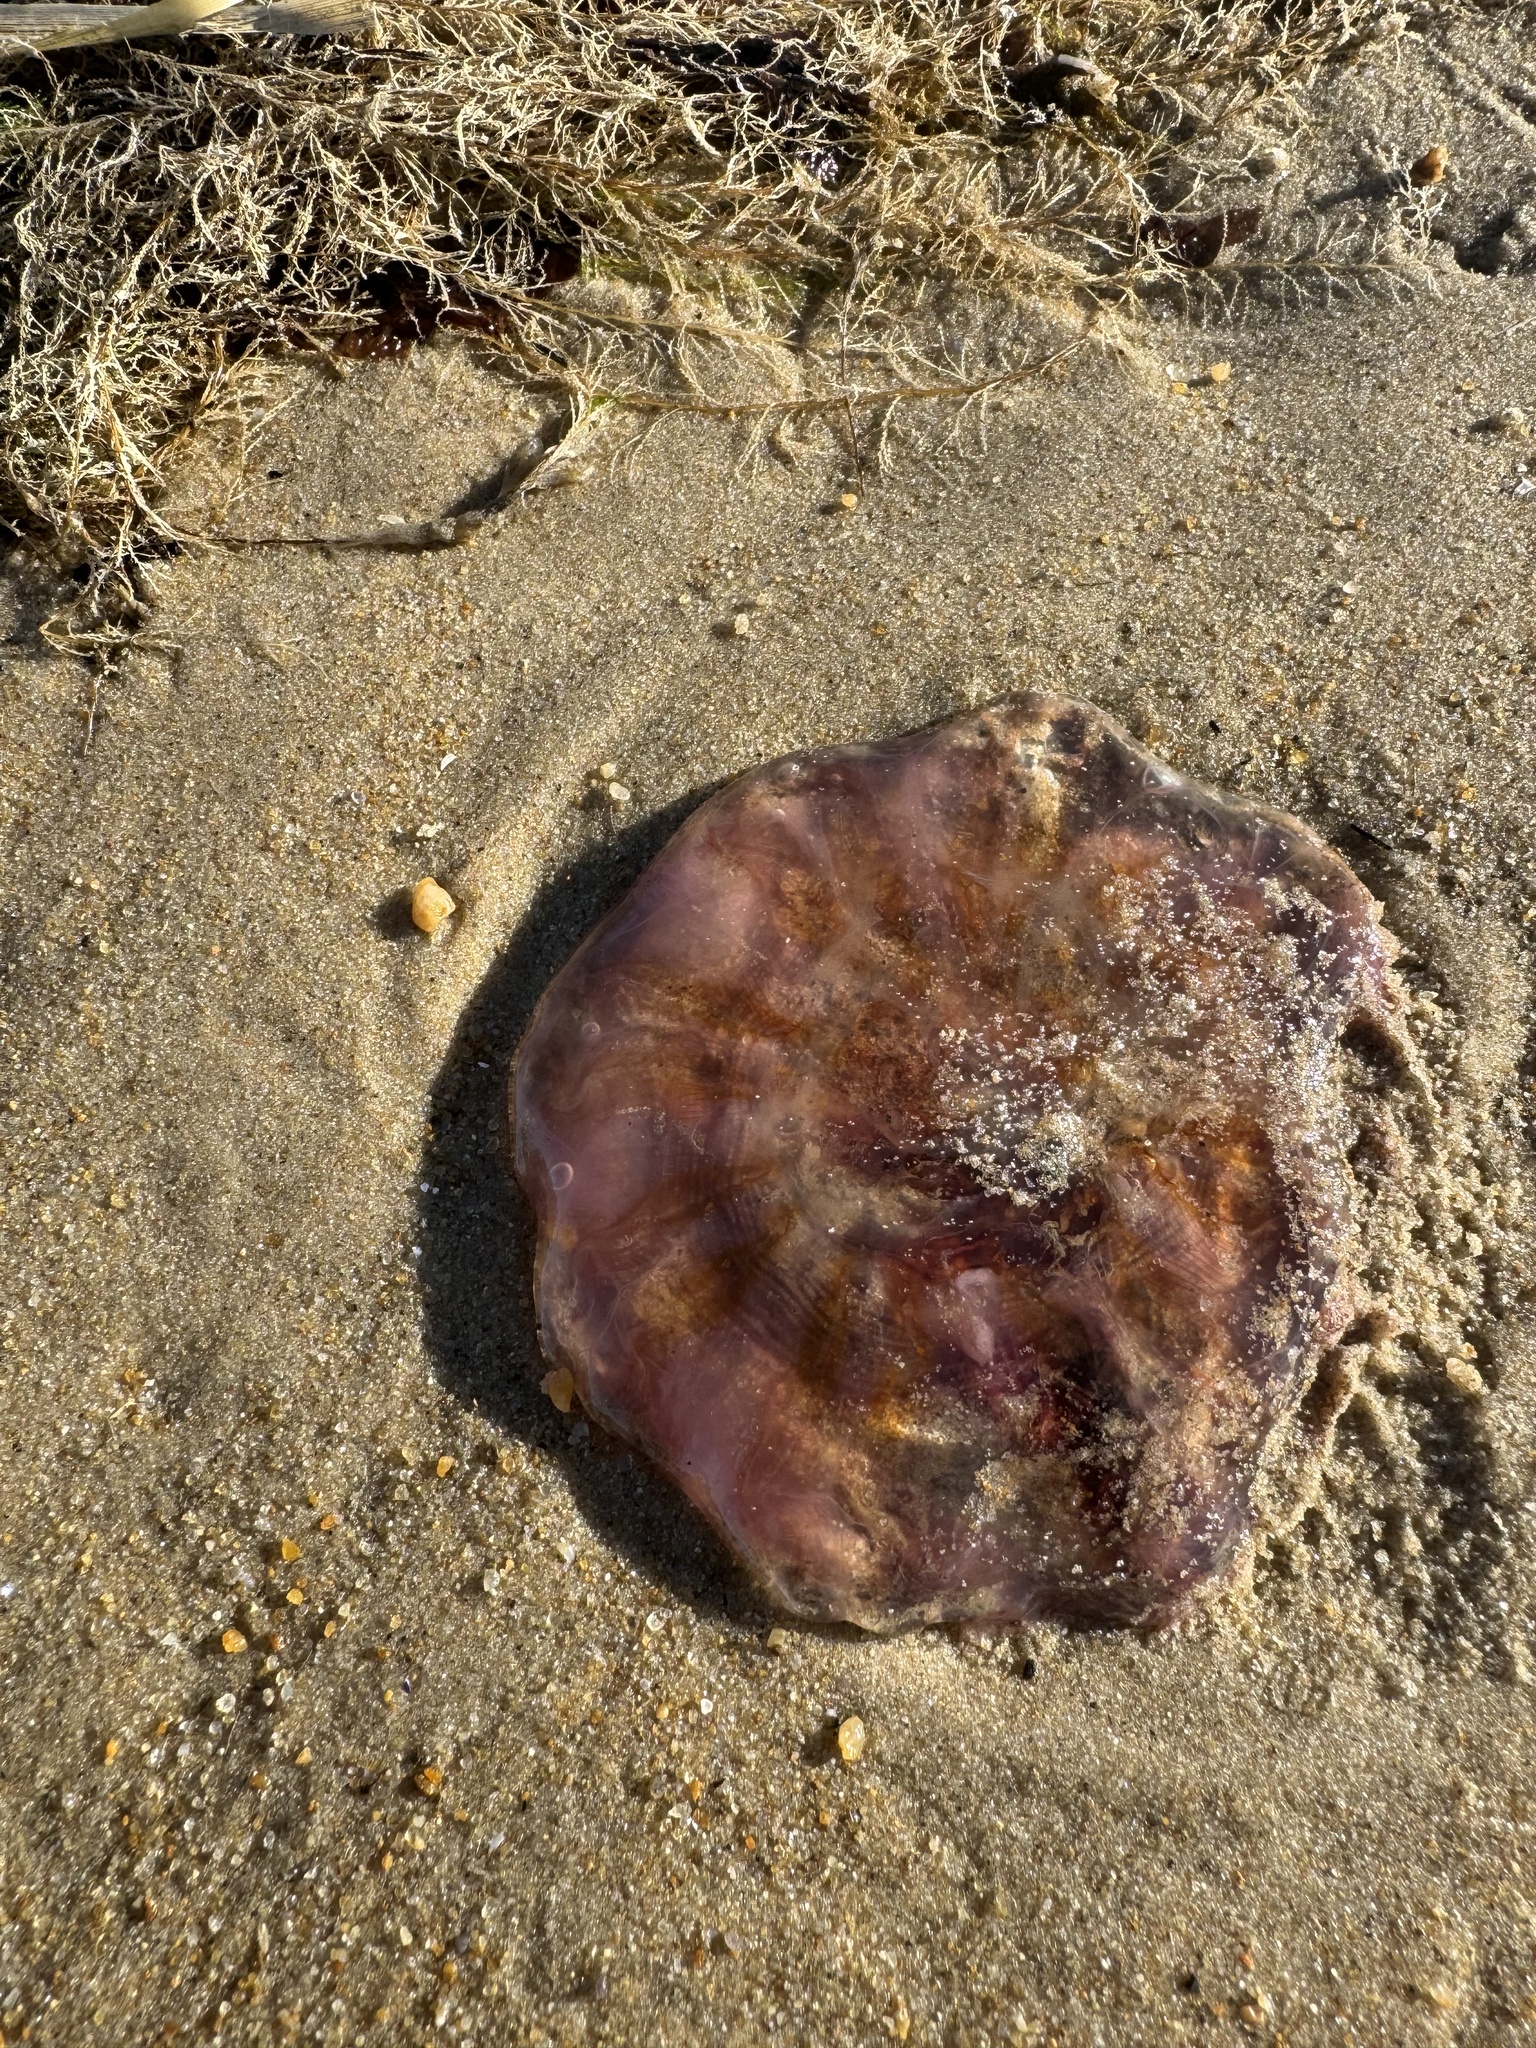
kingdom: Animalia
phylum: Cnidaria
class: Scyphozoa
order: Semaeostomeae
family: Cyaneidae
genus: Cyanea
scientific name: Cyanea versicolor
